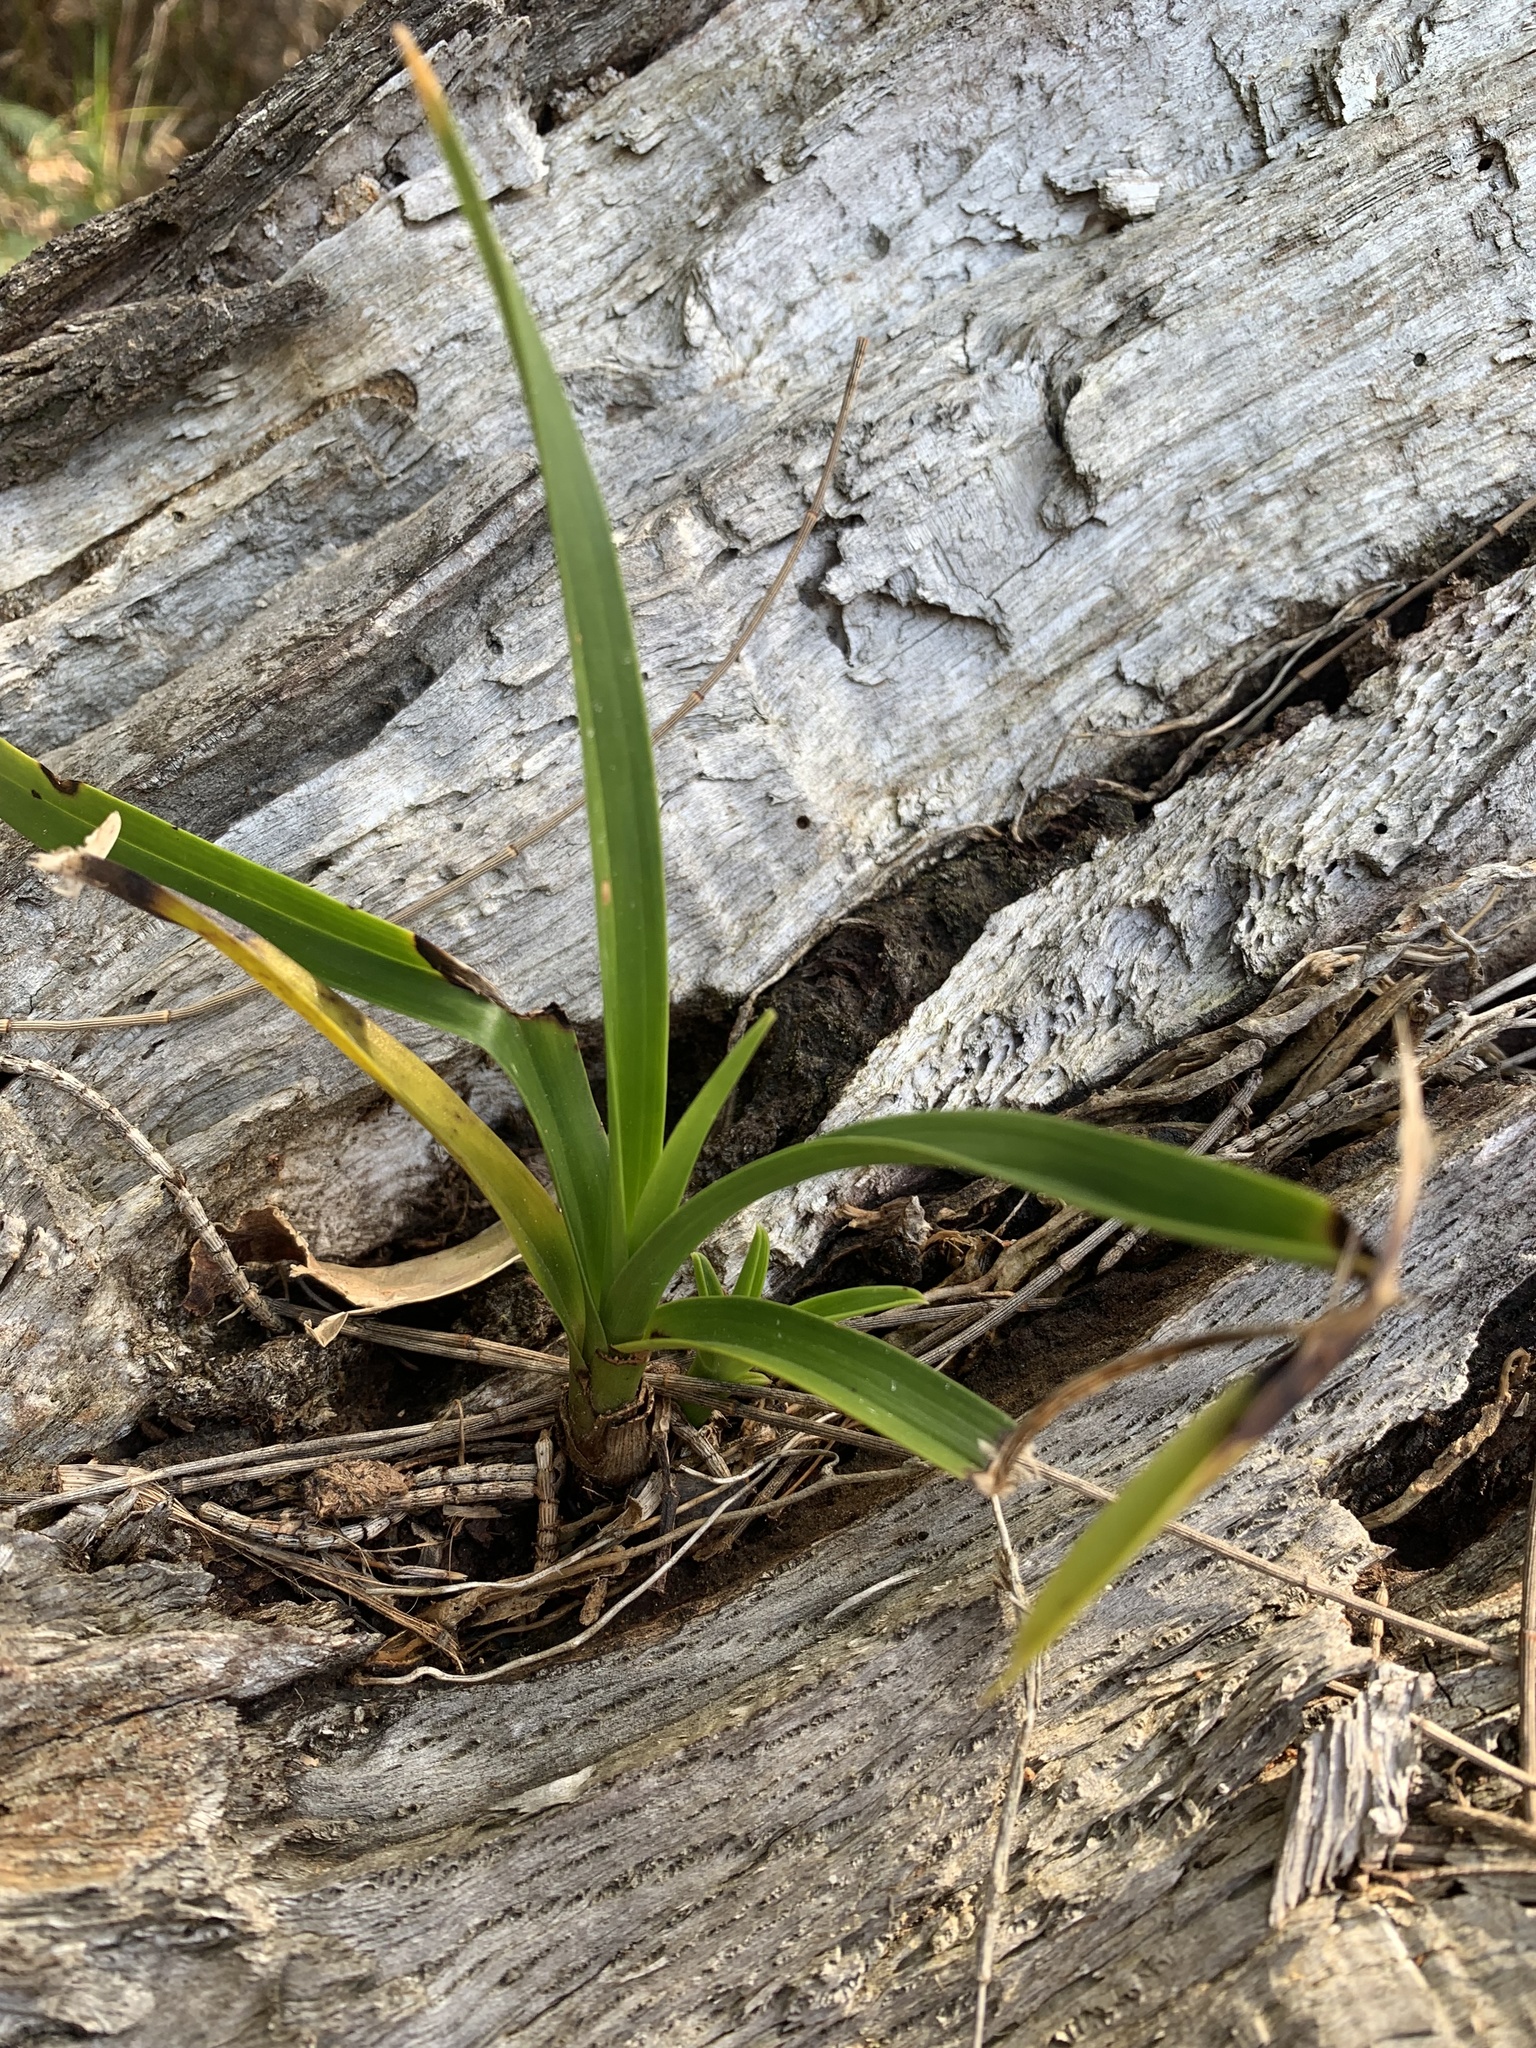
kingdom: Plantae
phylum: Tracheophyta
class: Liliopsida
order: Asparagales
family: Orchidaceae
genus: Cymbidium
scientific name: Cymbidium suave
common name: Snake orchid
